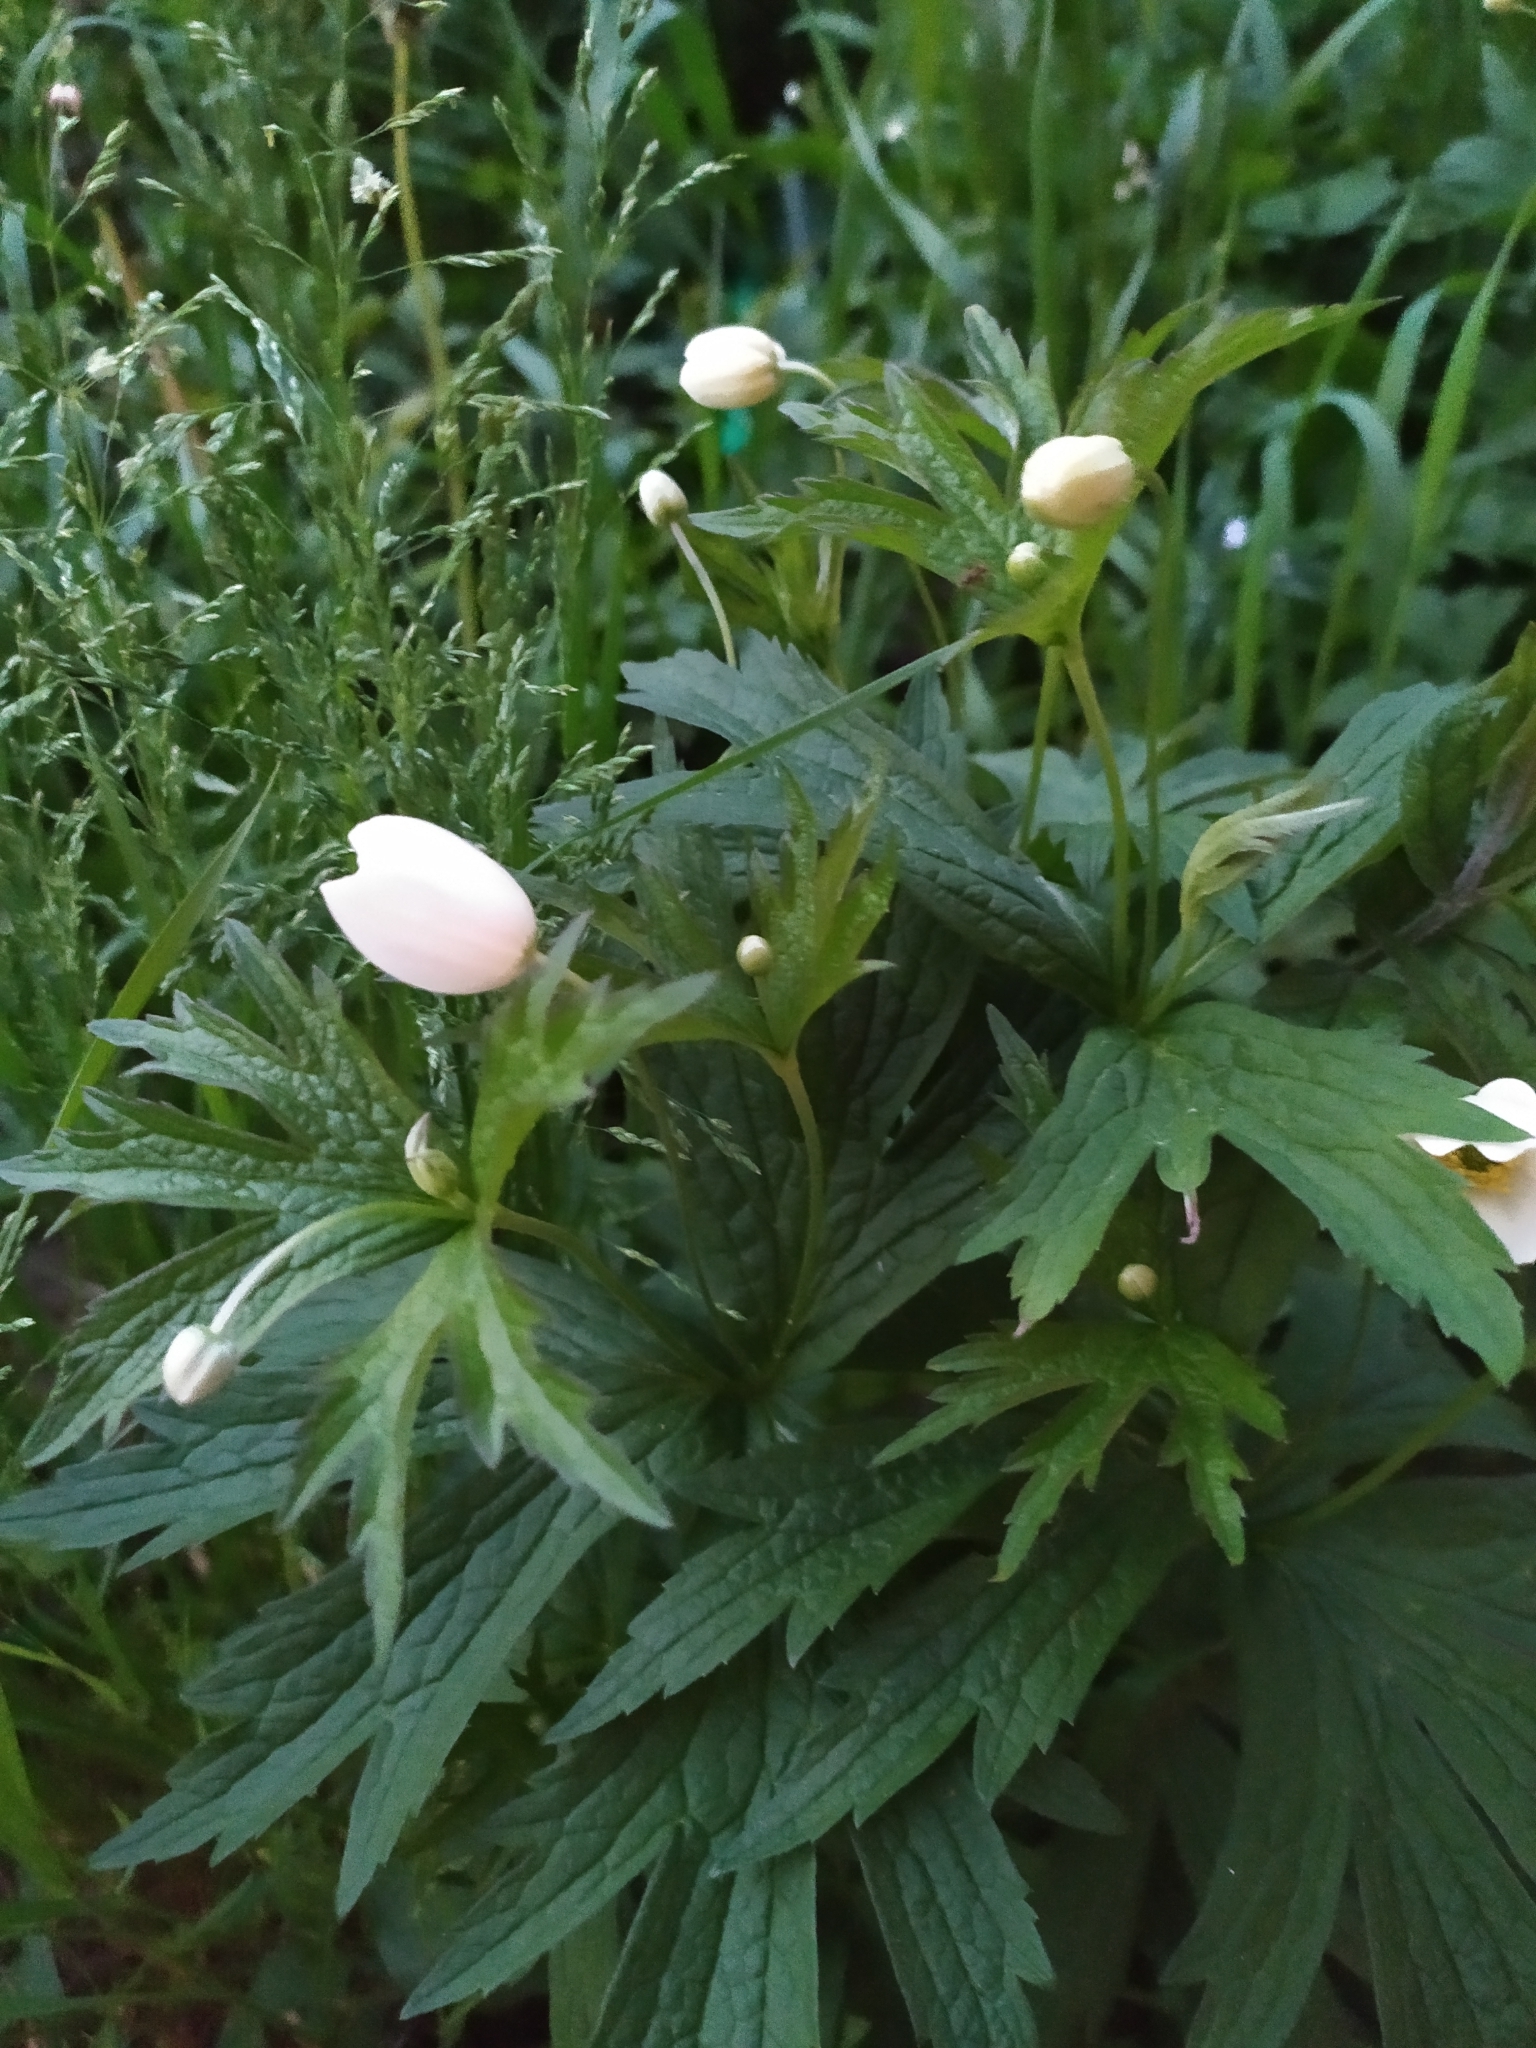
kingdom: Plantae
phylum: Tracheophyta
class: Magnoliopsida
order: Ranunculales
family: Ranunculaceae
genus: Anemonastrum
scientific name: Anemonastrum canadense
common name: Canada anemone
